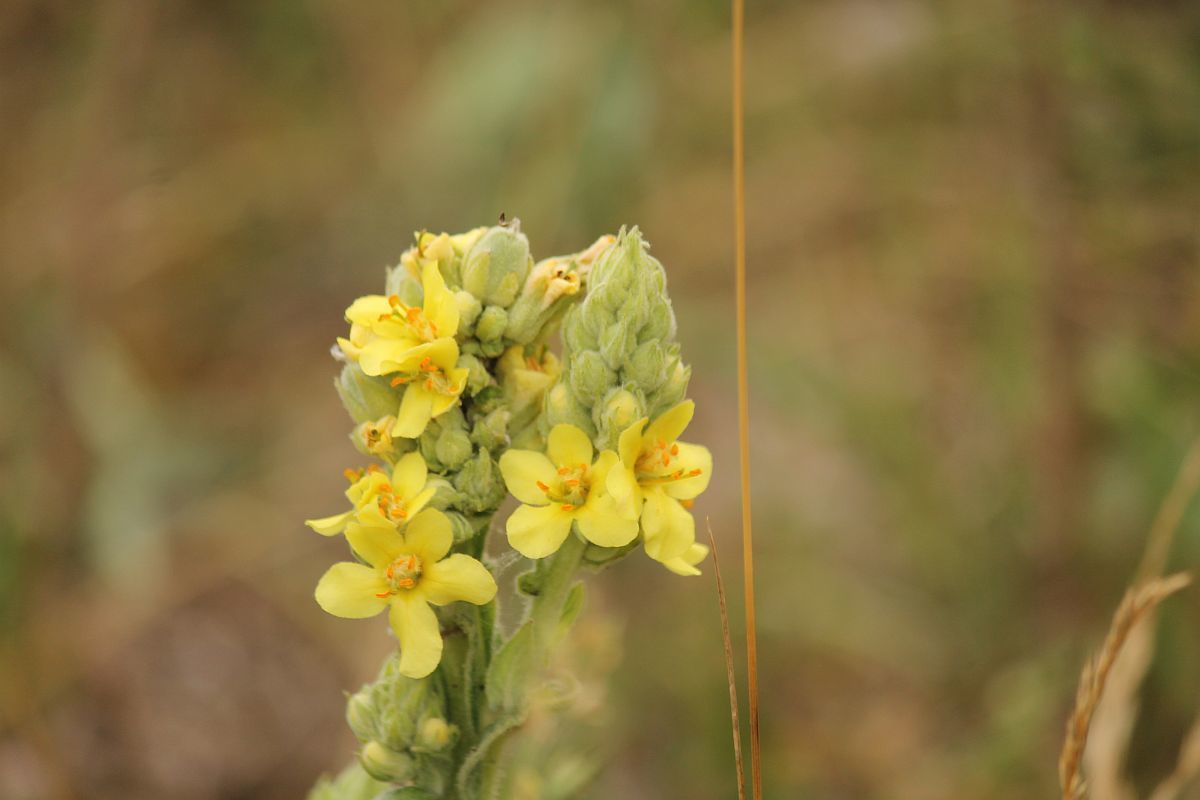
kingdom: Plantae
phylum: Tracheophyta
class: Magnoliopsida
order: Lamiales
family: Scrophulariaceae
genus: Verbascum
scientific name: Verbascum thapsus
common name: Common mullein
